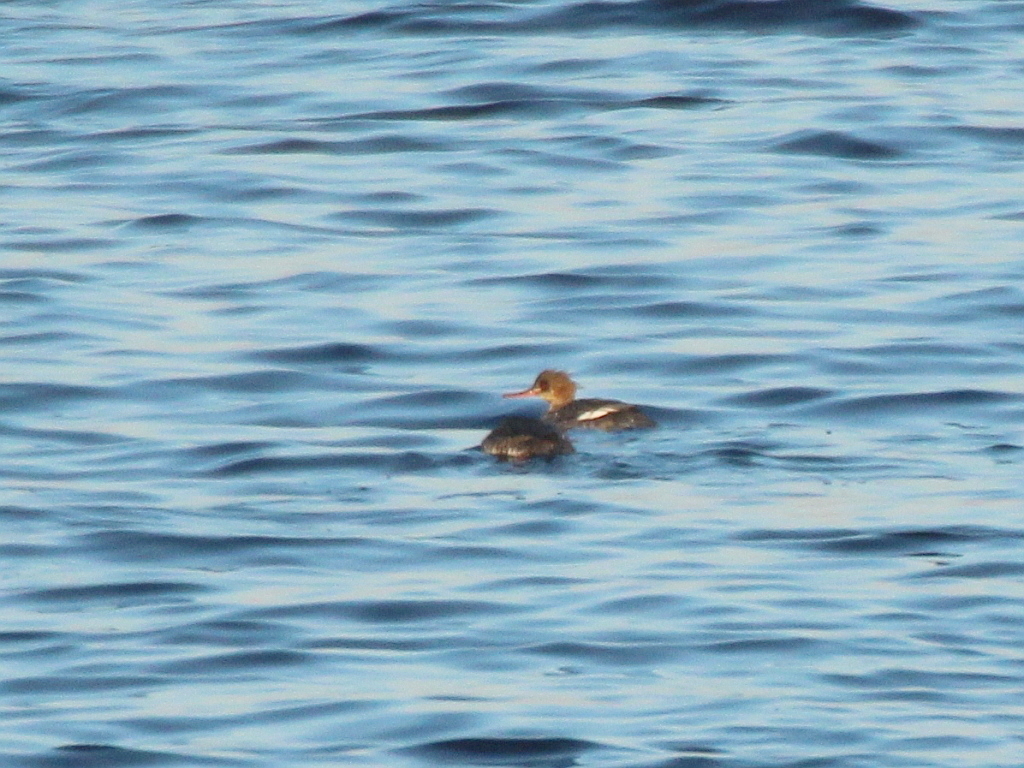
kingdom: Animalia
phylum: Chordata
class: Aves
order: Anseriformes
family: Anatidae
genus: Mergus
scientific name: Mergus serrator
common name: Red-breasted merganser
